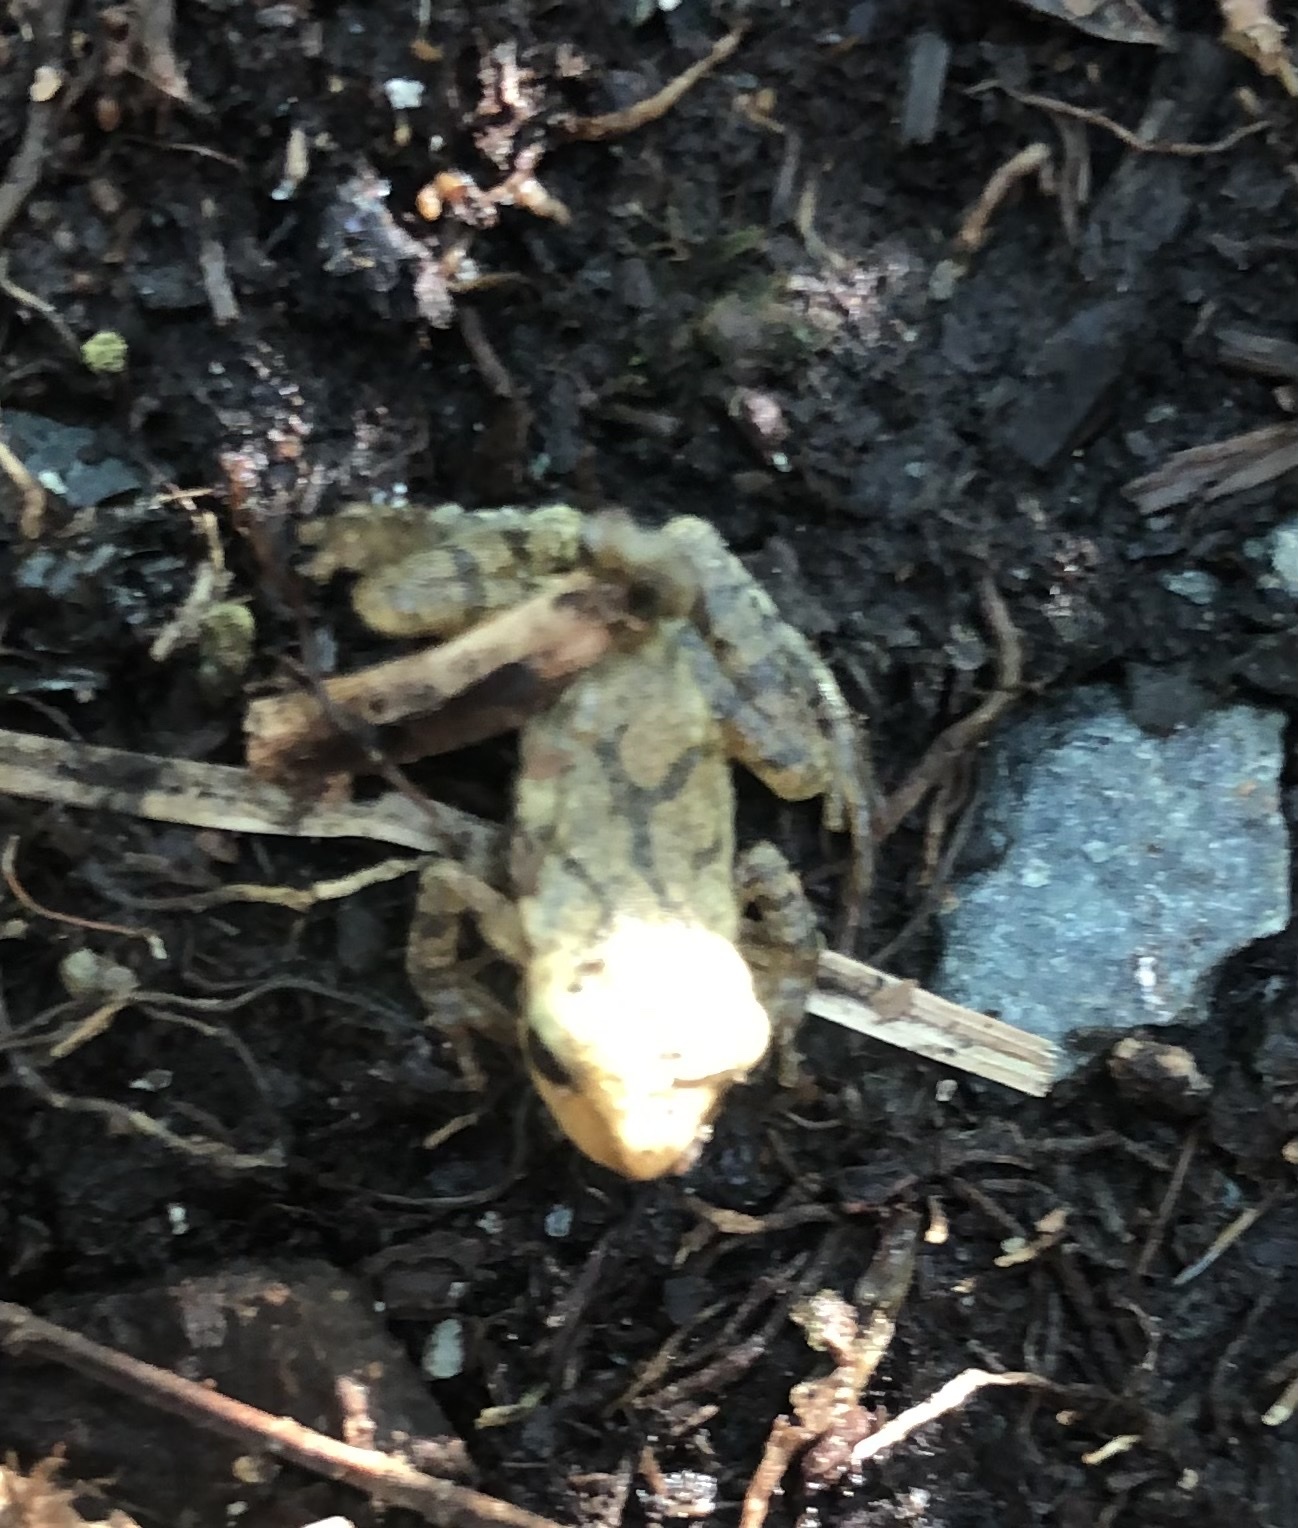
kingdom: Animalia
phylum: Chordata
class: Amphibia
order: Anura
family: Hylidae
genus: Pseudacris
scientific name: Pseudacris crucifer
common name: Spring peeper
